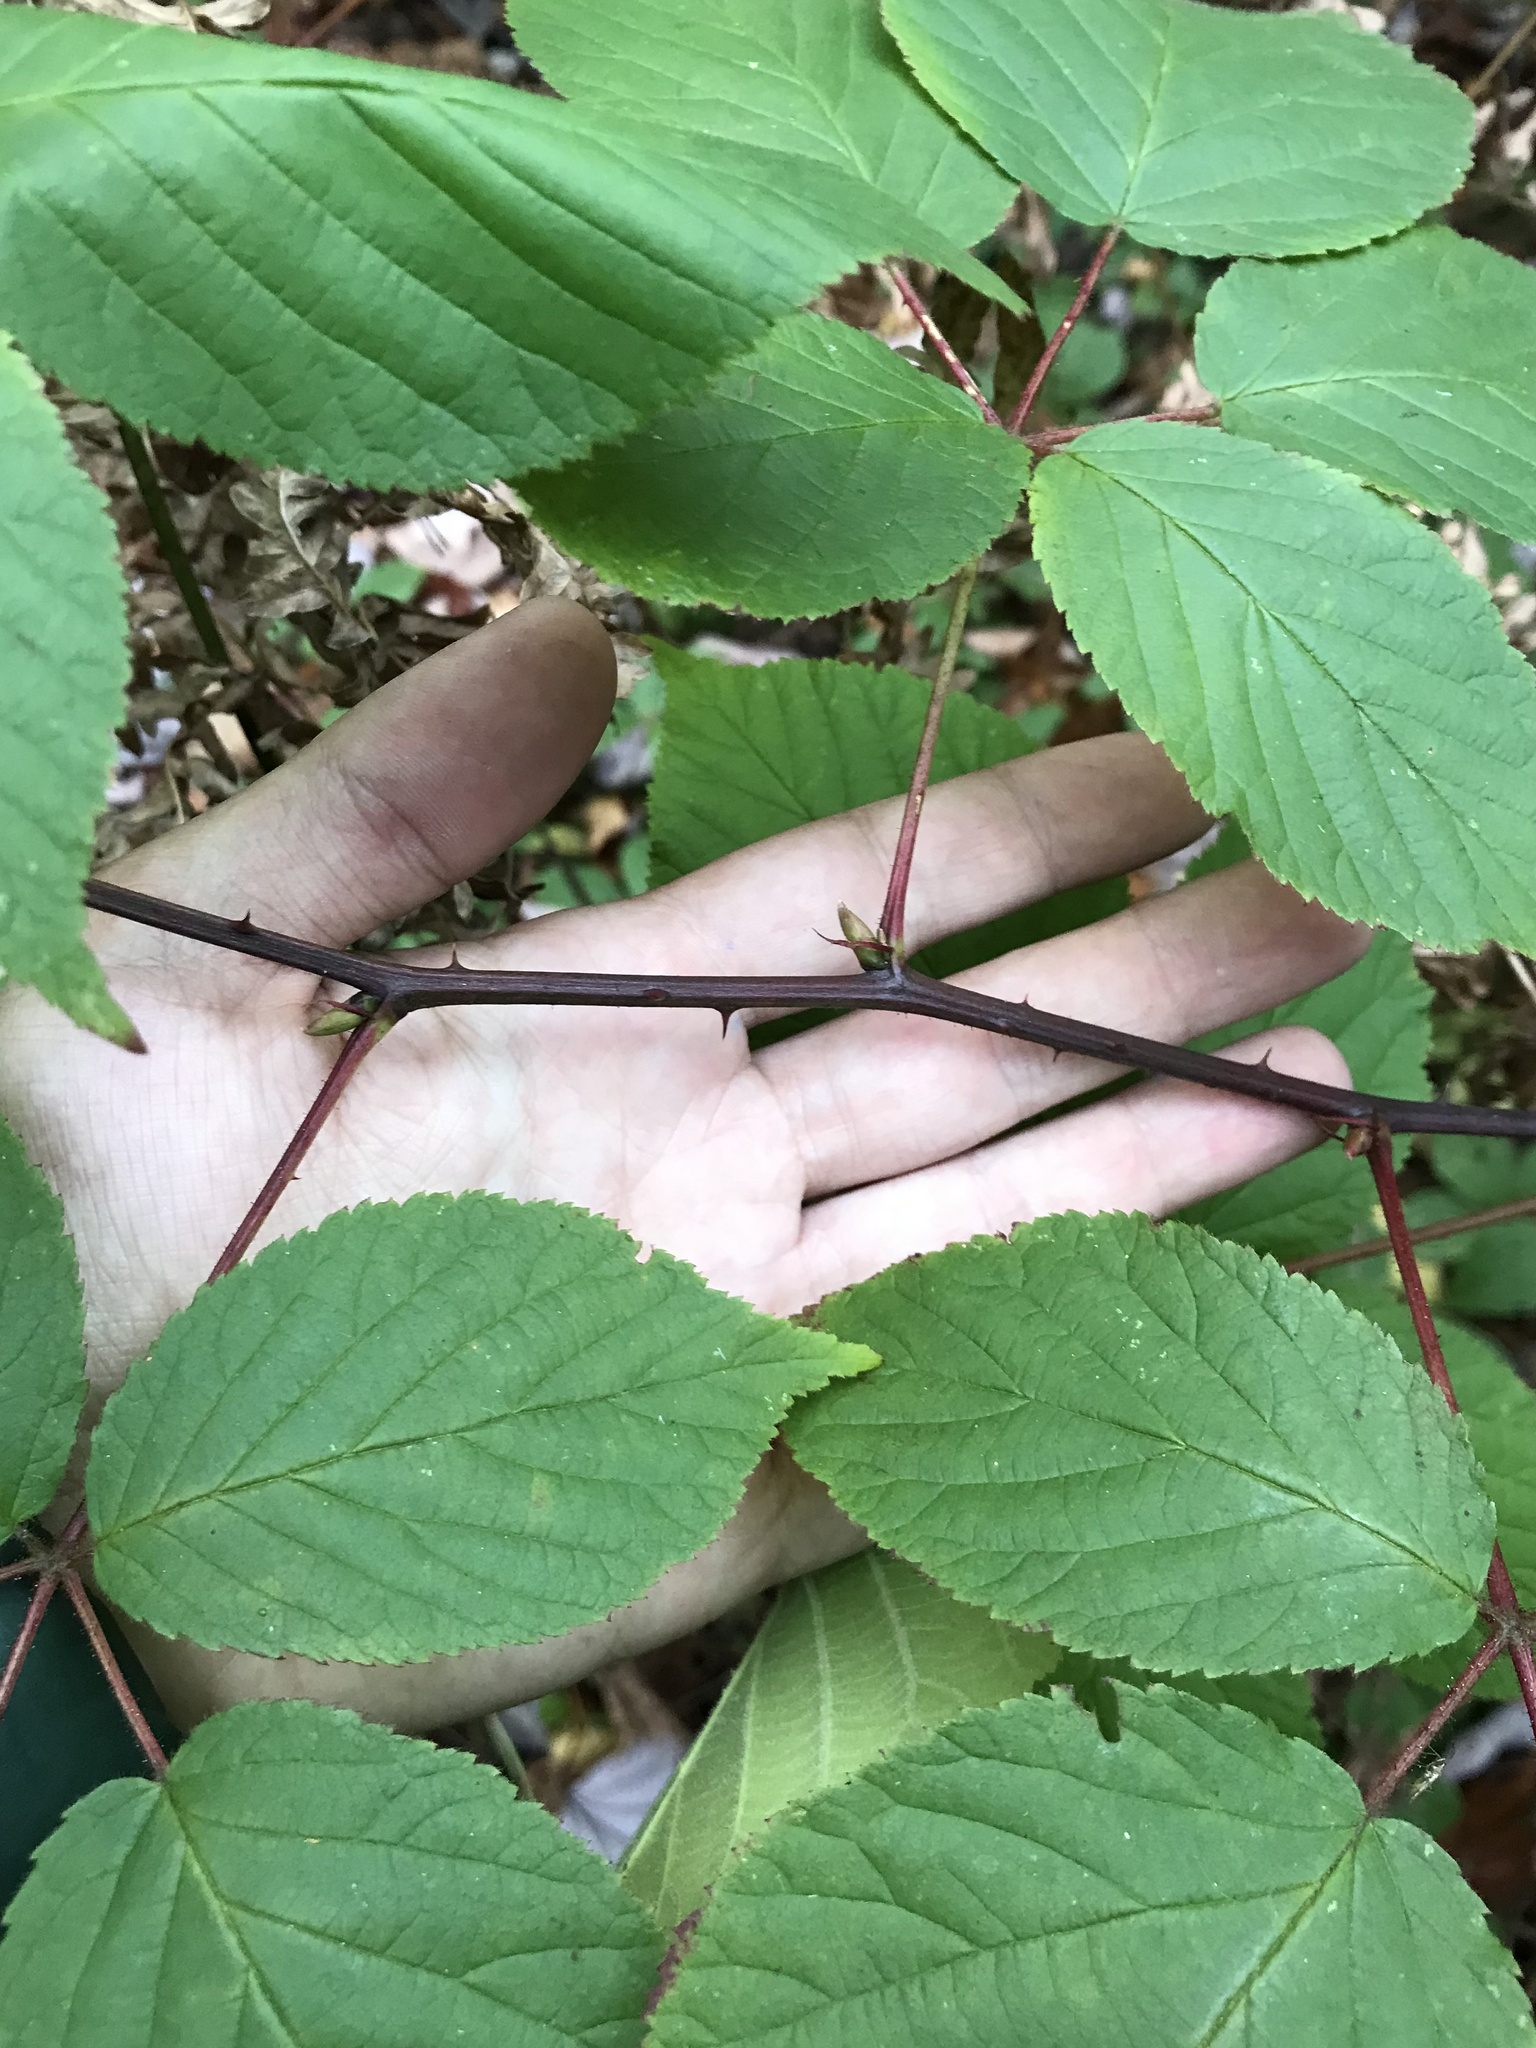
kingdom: Plantae
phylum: Tracheophyta
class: Magnoliopsida
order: Rosales
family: Rosaceae
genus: Rubus
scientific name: Rubus allegheniensis
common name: Allegheny blackberry
